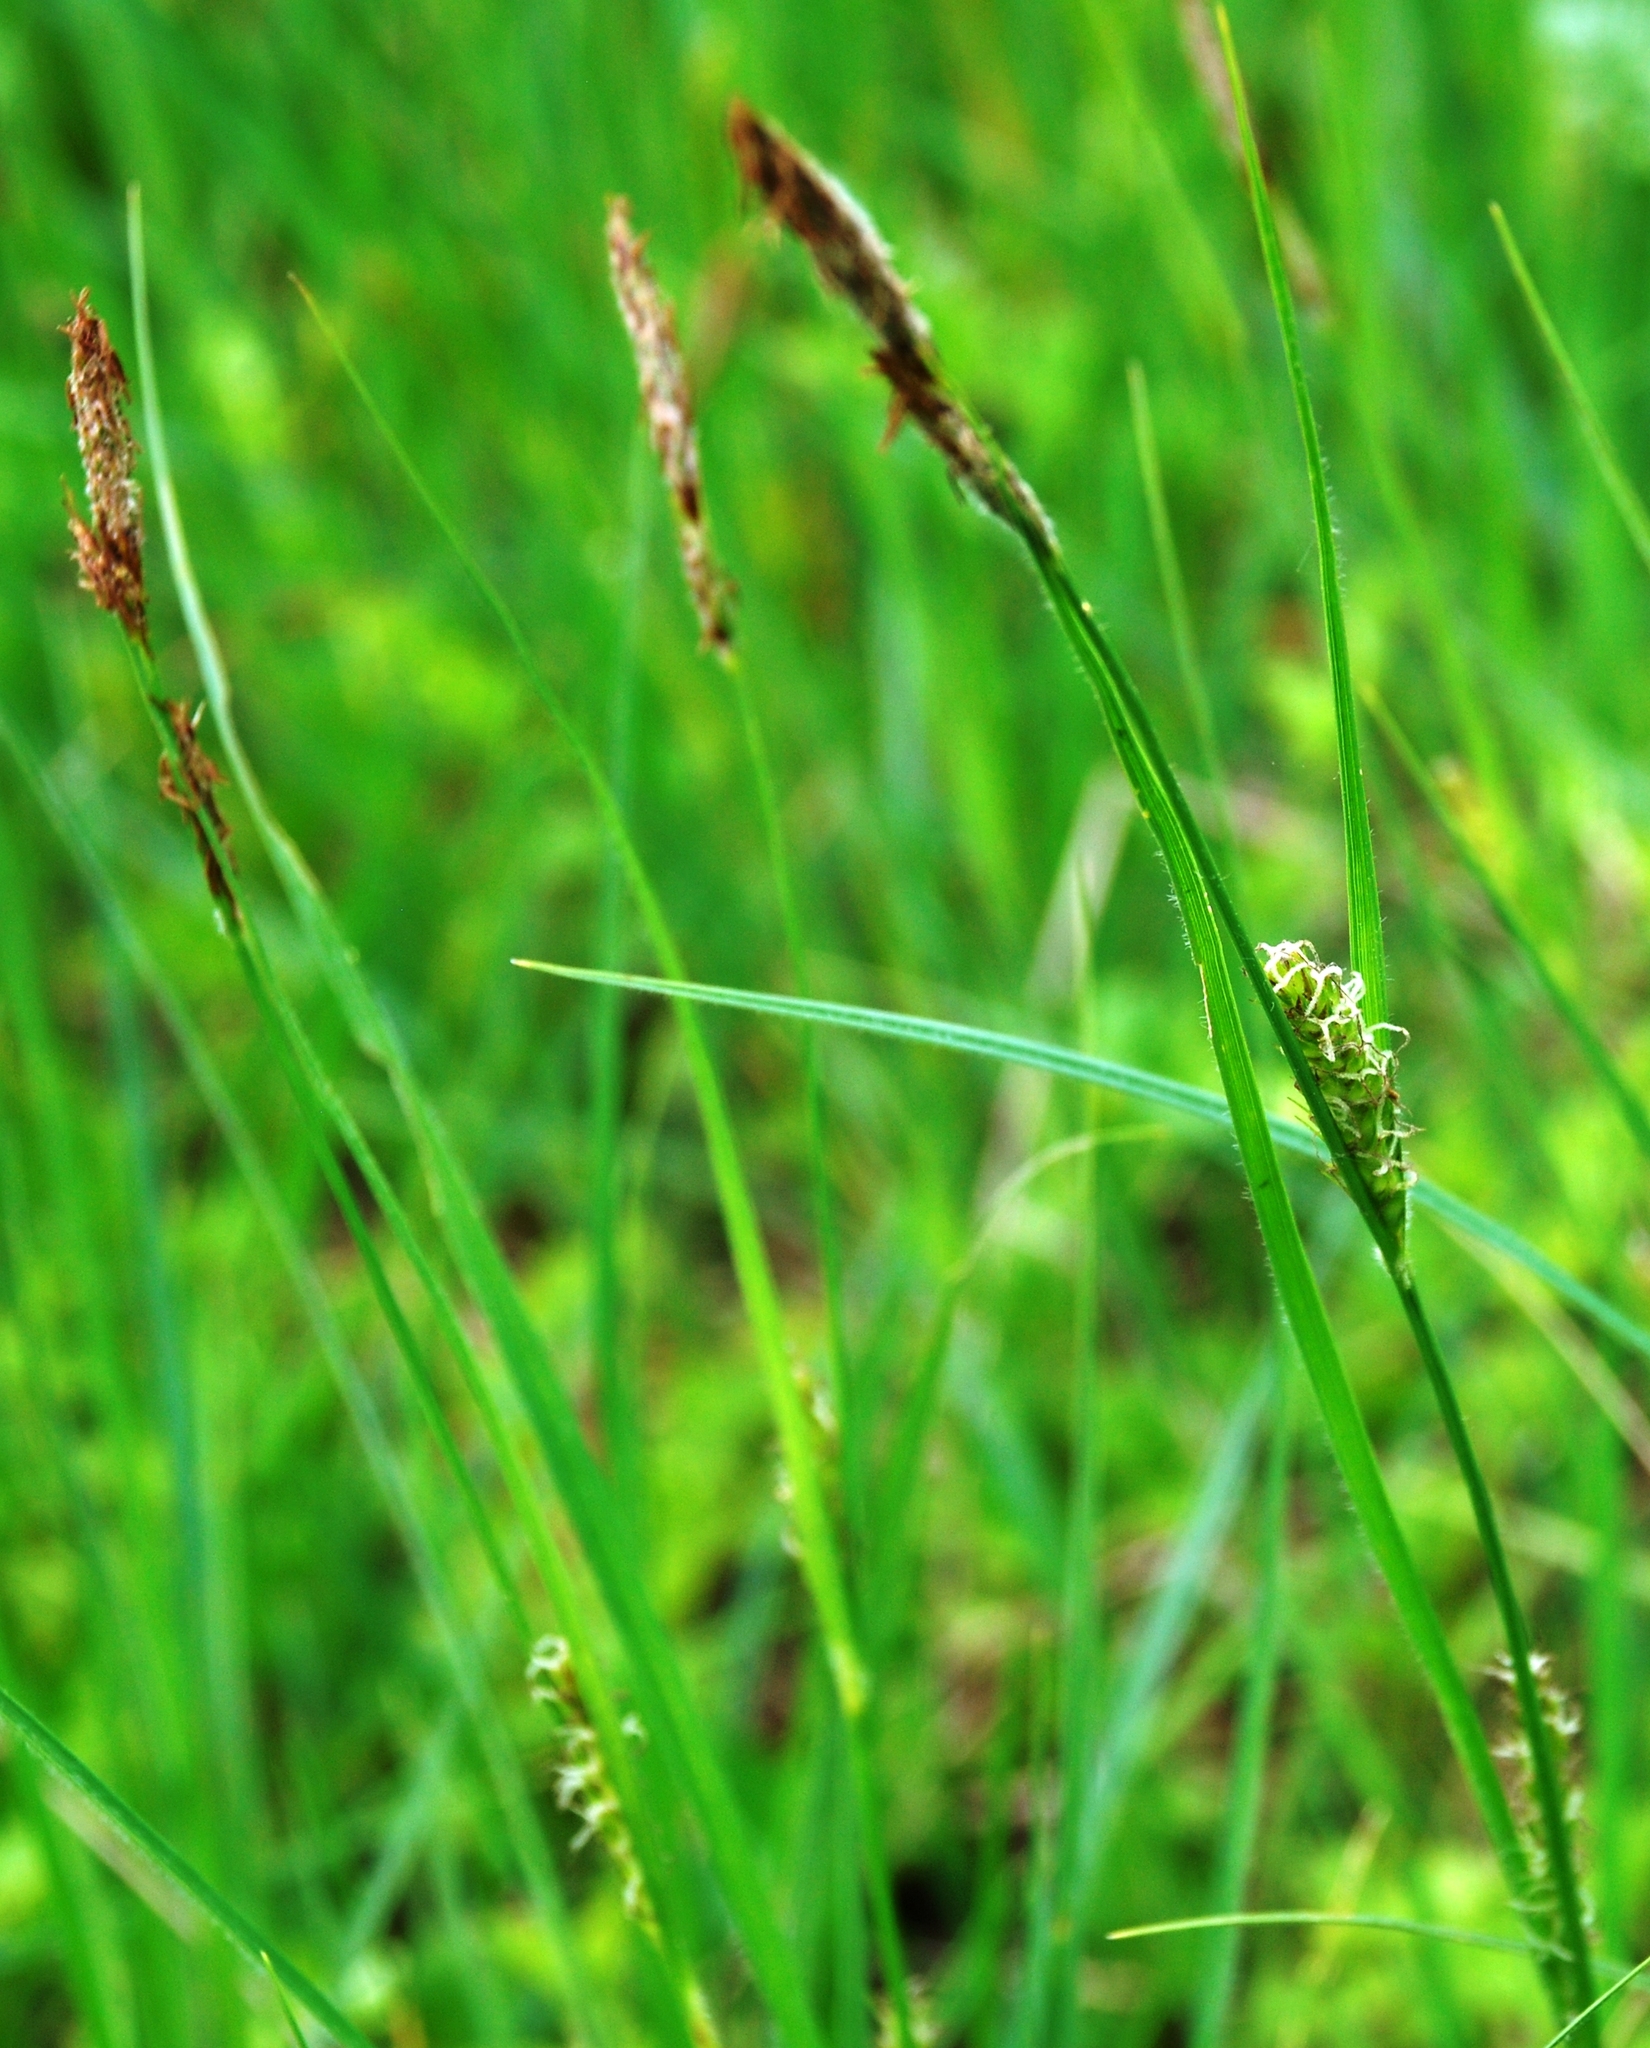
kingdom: Plantae
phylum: Tracheophyta
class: Liliopsida
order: Poales
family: Cyperaceae
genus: Carex
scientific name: Carex hirta
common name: Hairy sedge
